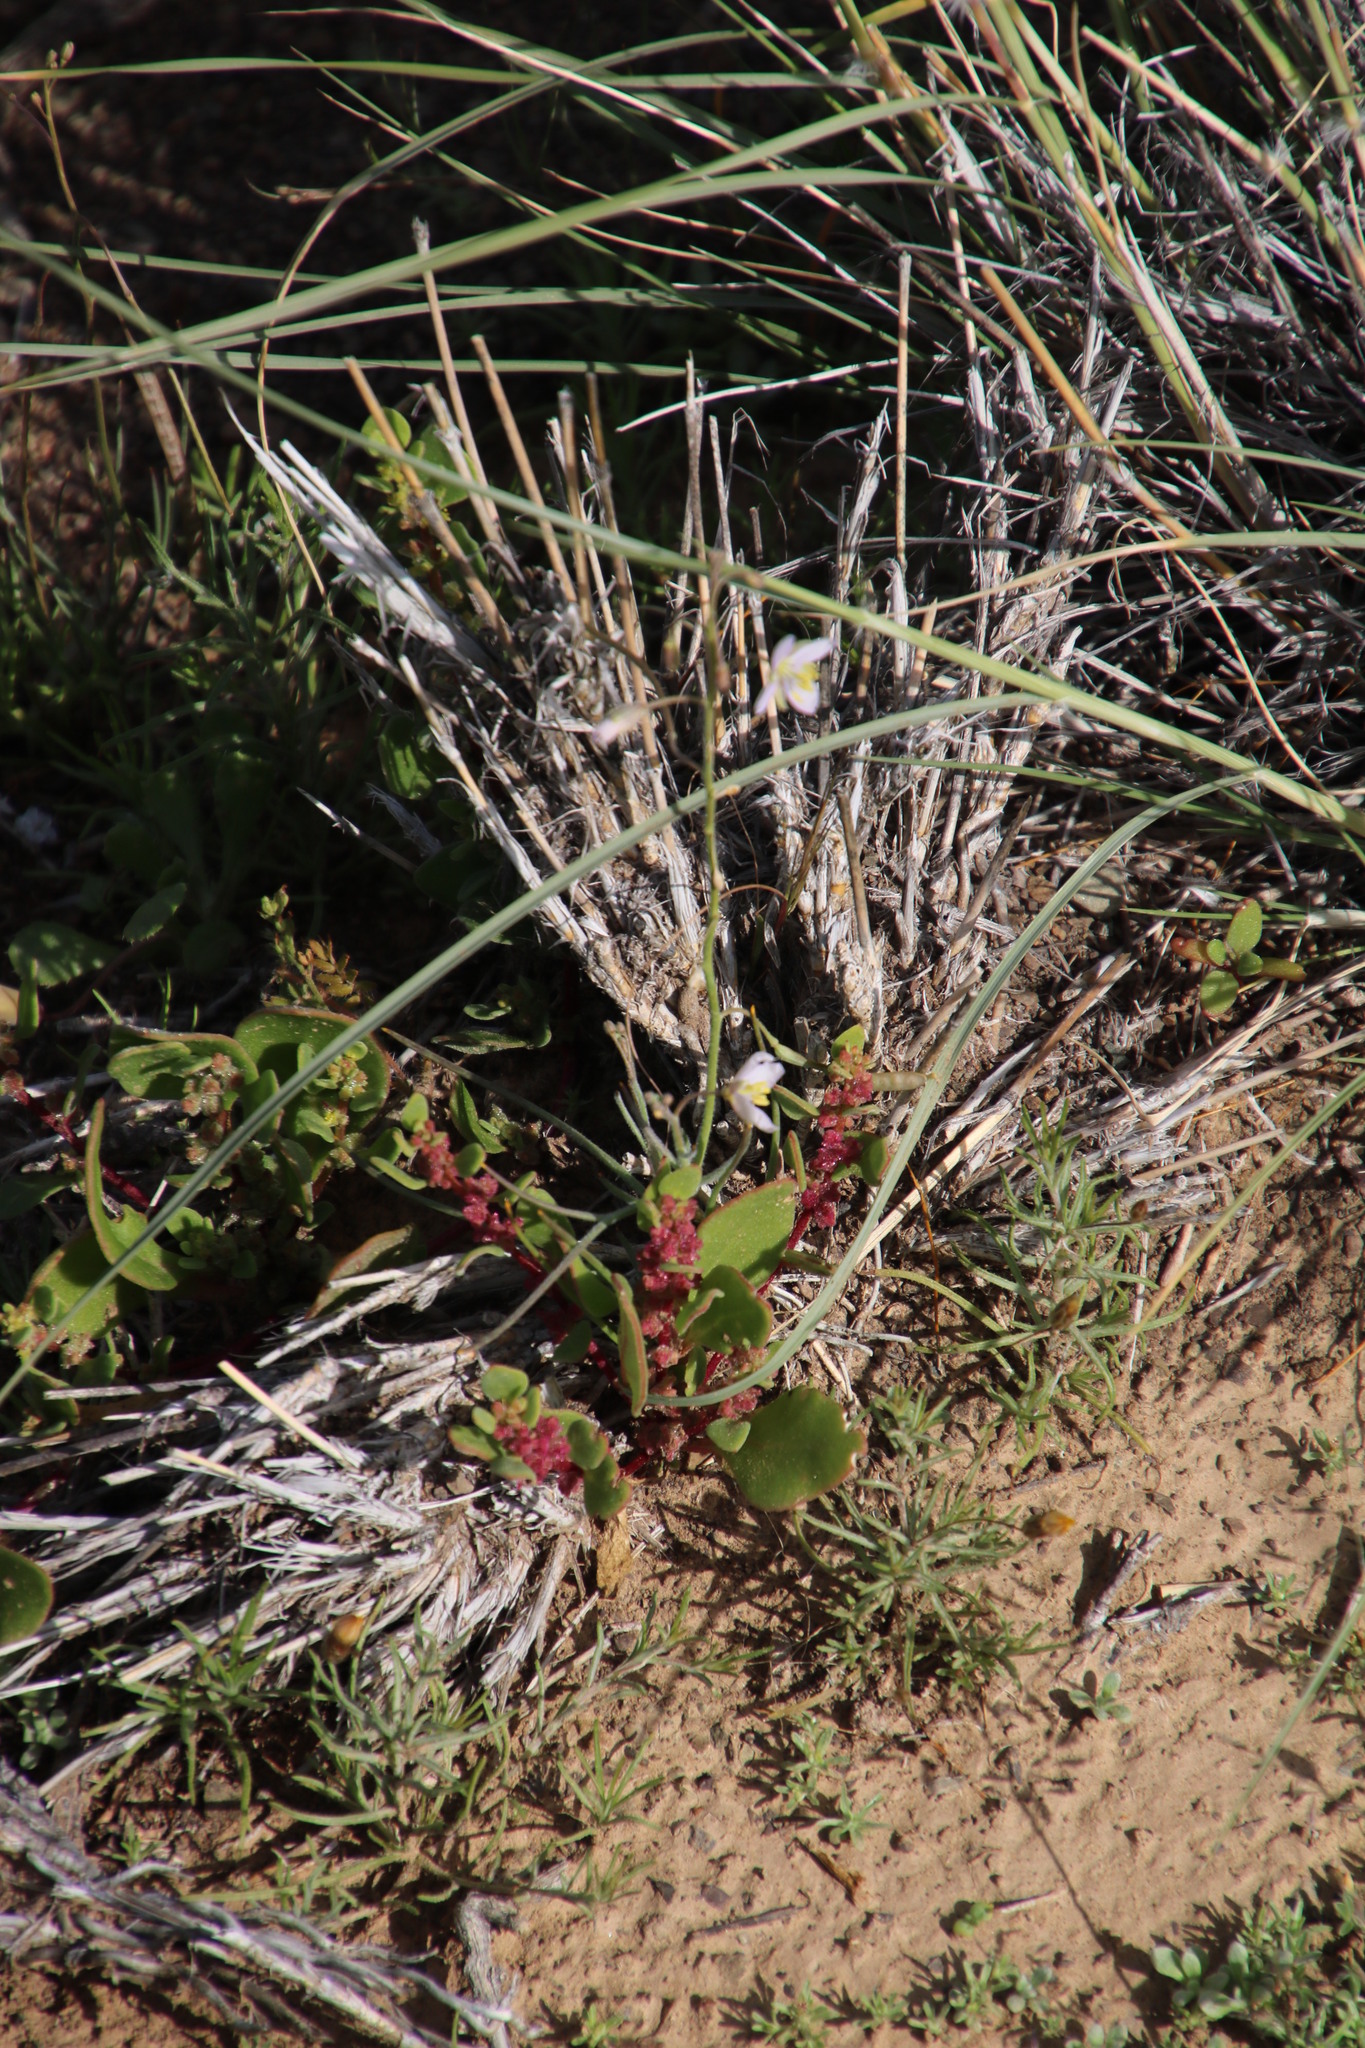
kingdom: Plantae
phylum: Tracheophyta
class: Magnoliopsida
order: Brassicales
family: Brassicaceae
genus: Heliophila
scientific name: Heliophila minima
